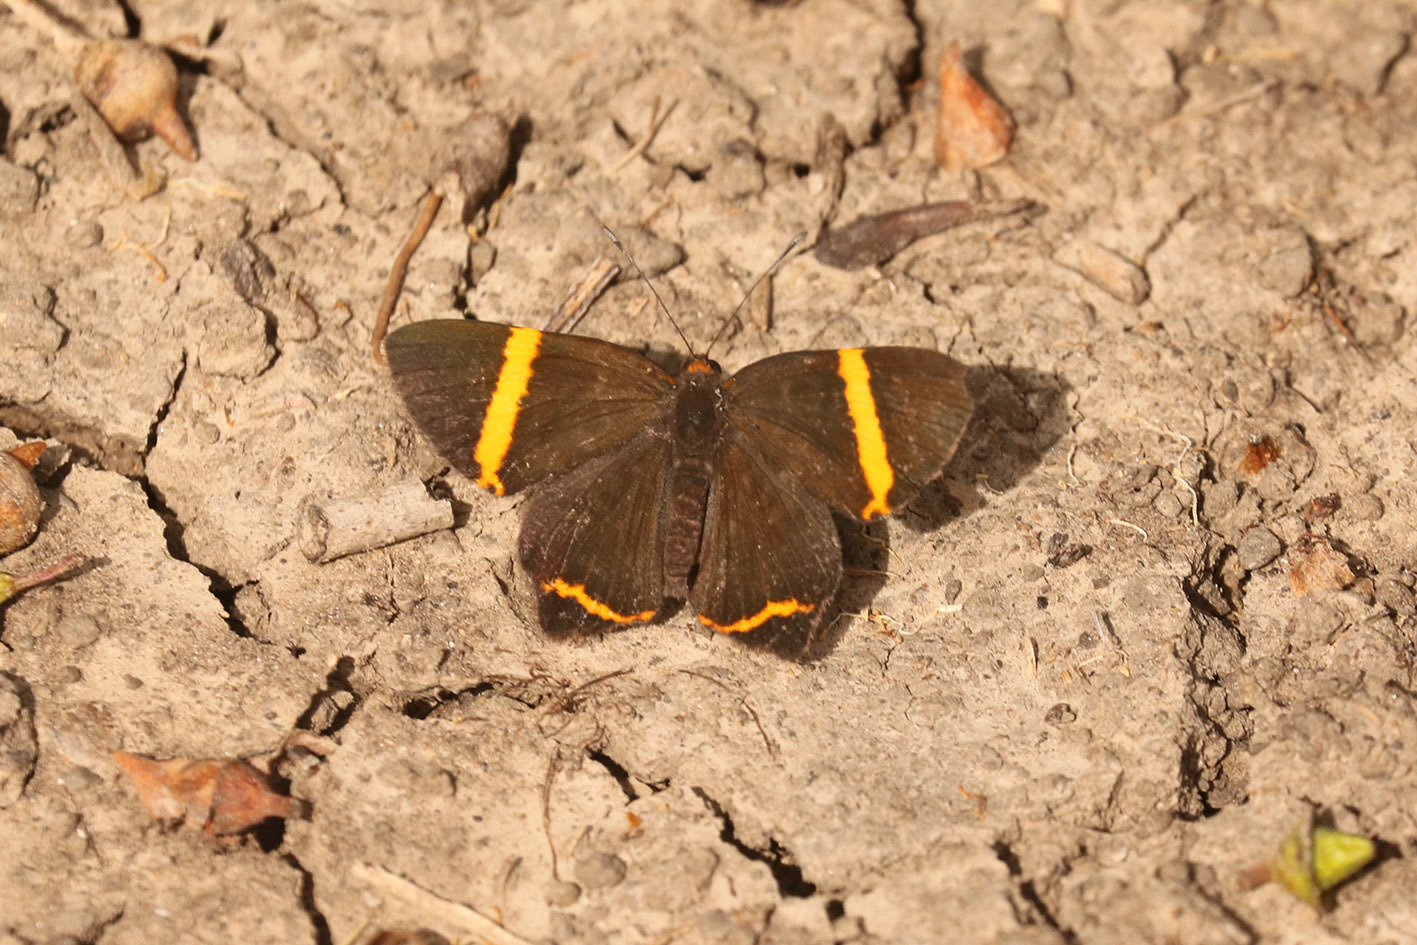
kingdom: Animalia
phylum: Arthropoda
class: Insecta
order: Lepidoptera
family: Riodinidae
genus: Riodina
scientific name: Riodina lysippoides
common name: Little dancer metalmark
